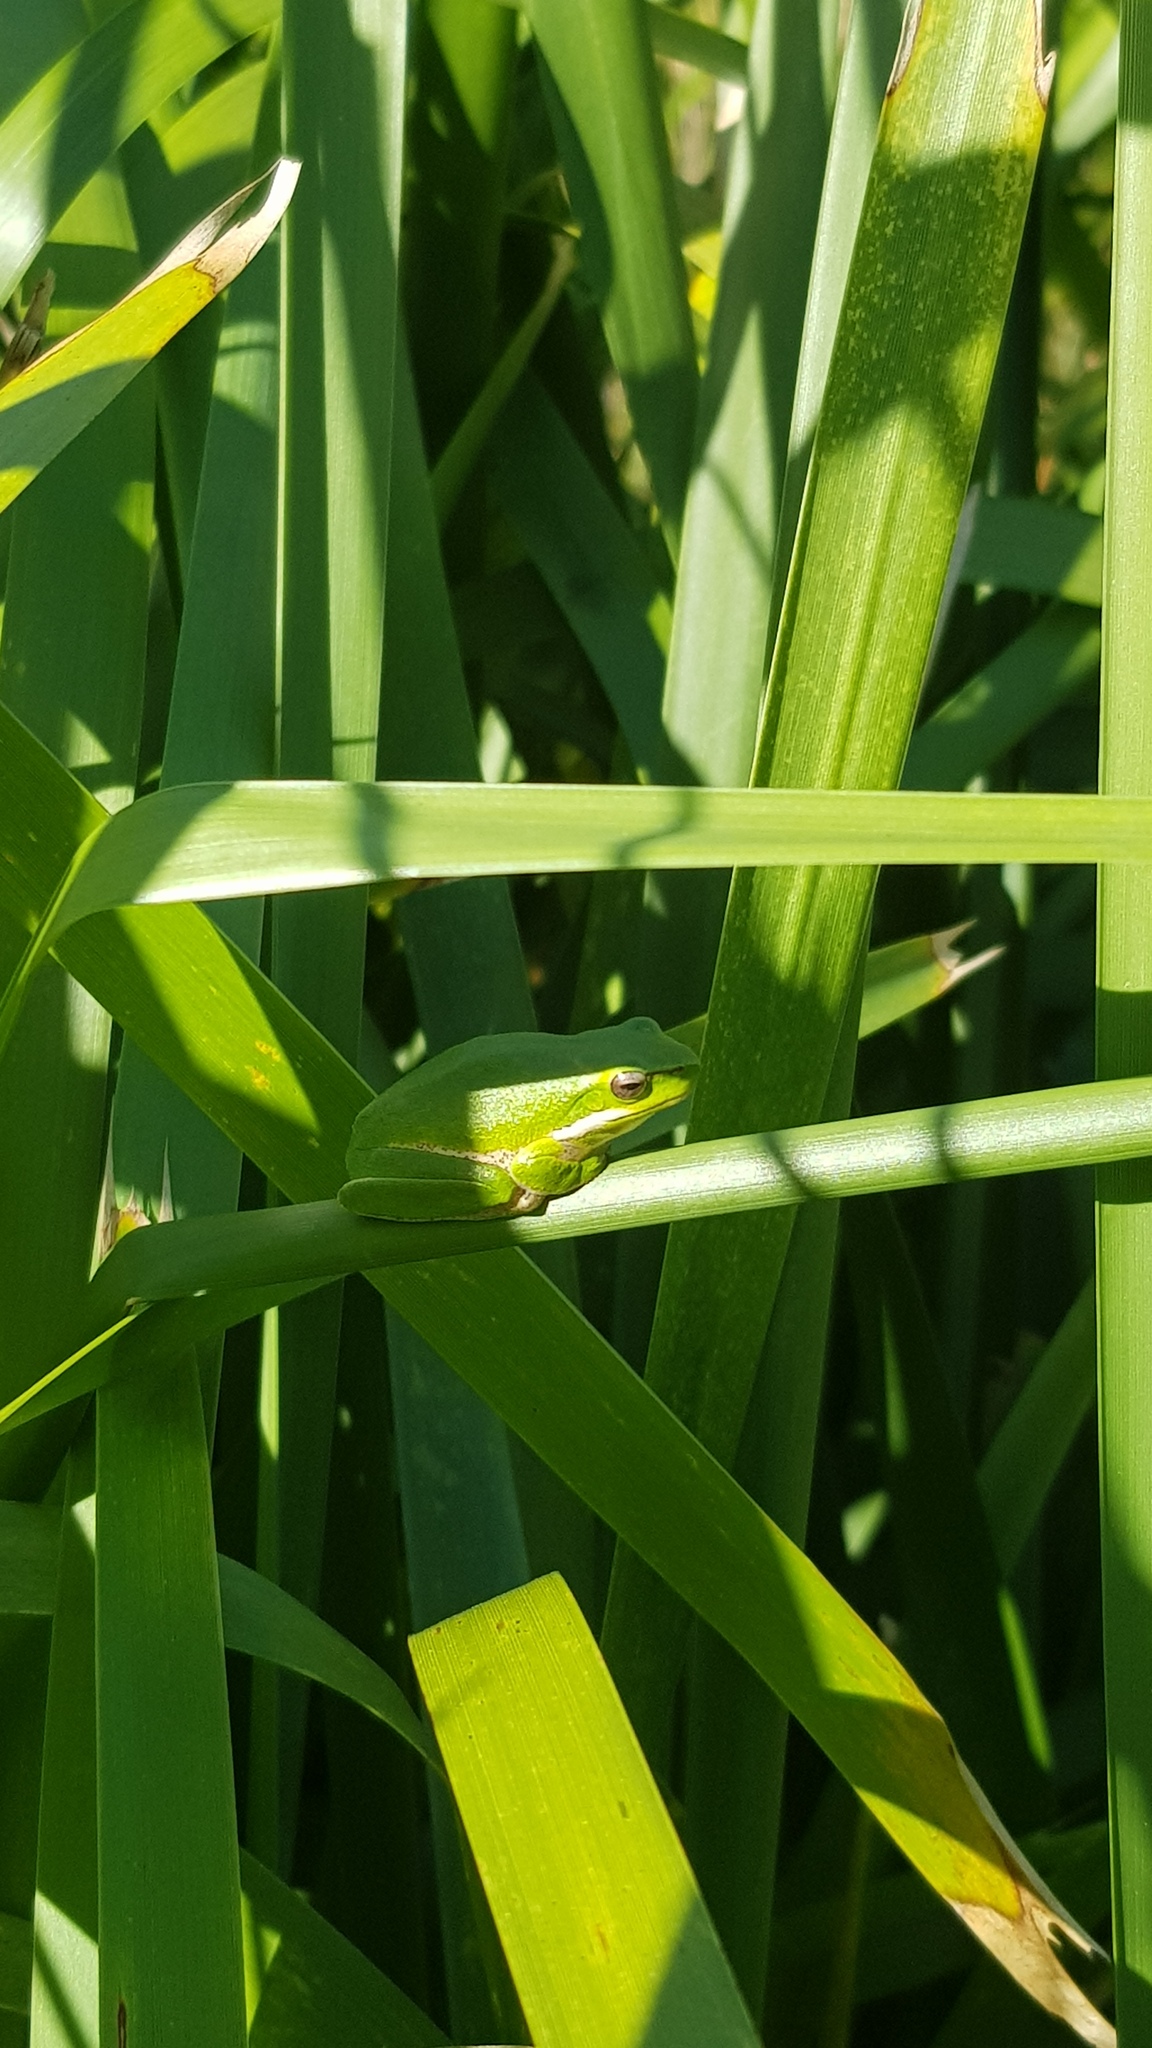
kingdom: Animalia
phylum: Chordata
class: Amphibia
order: Anura
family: Pelodryadidae
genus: Litoria
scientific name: Litoria fallax
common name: Eastern dwarf treefrog
